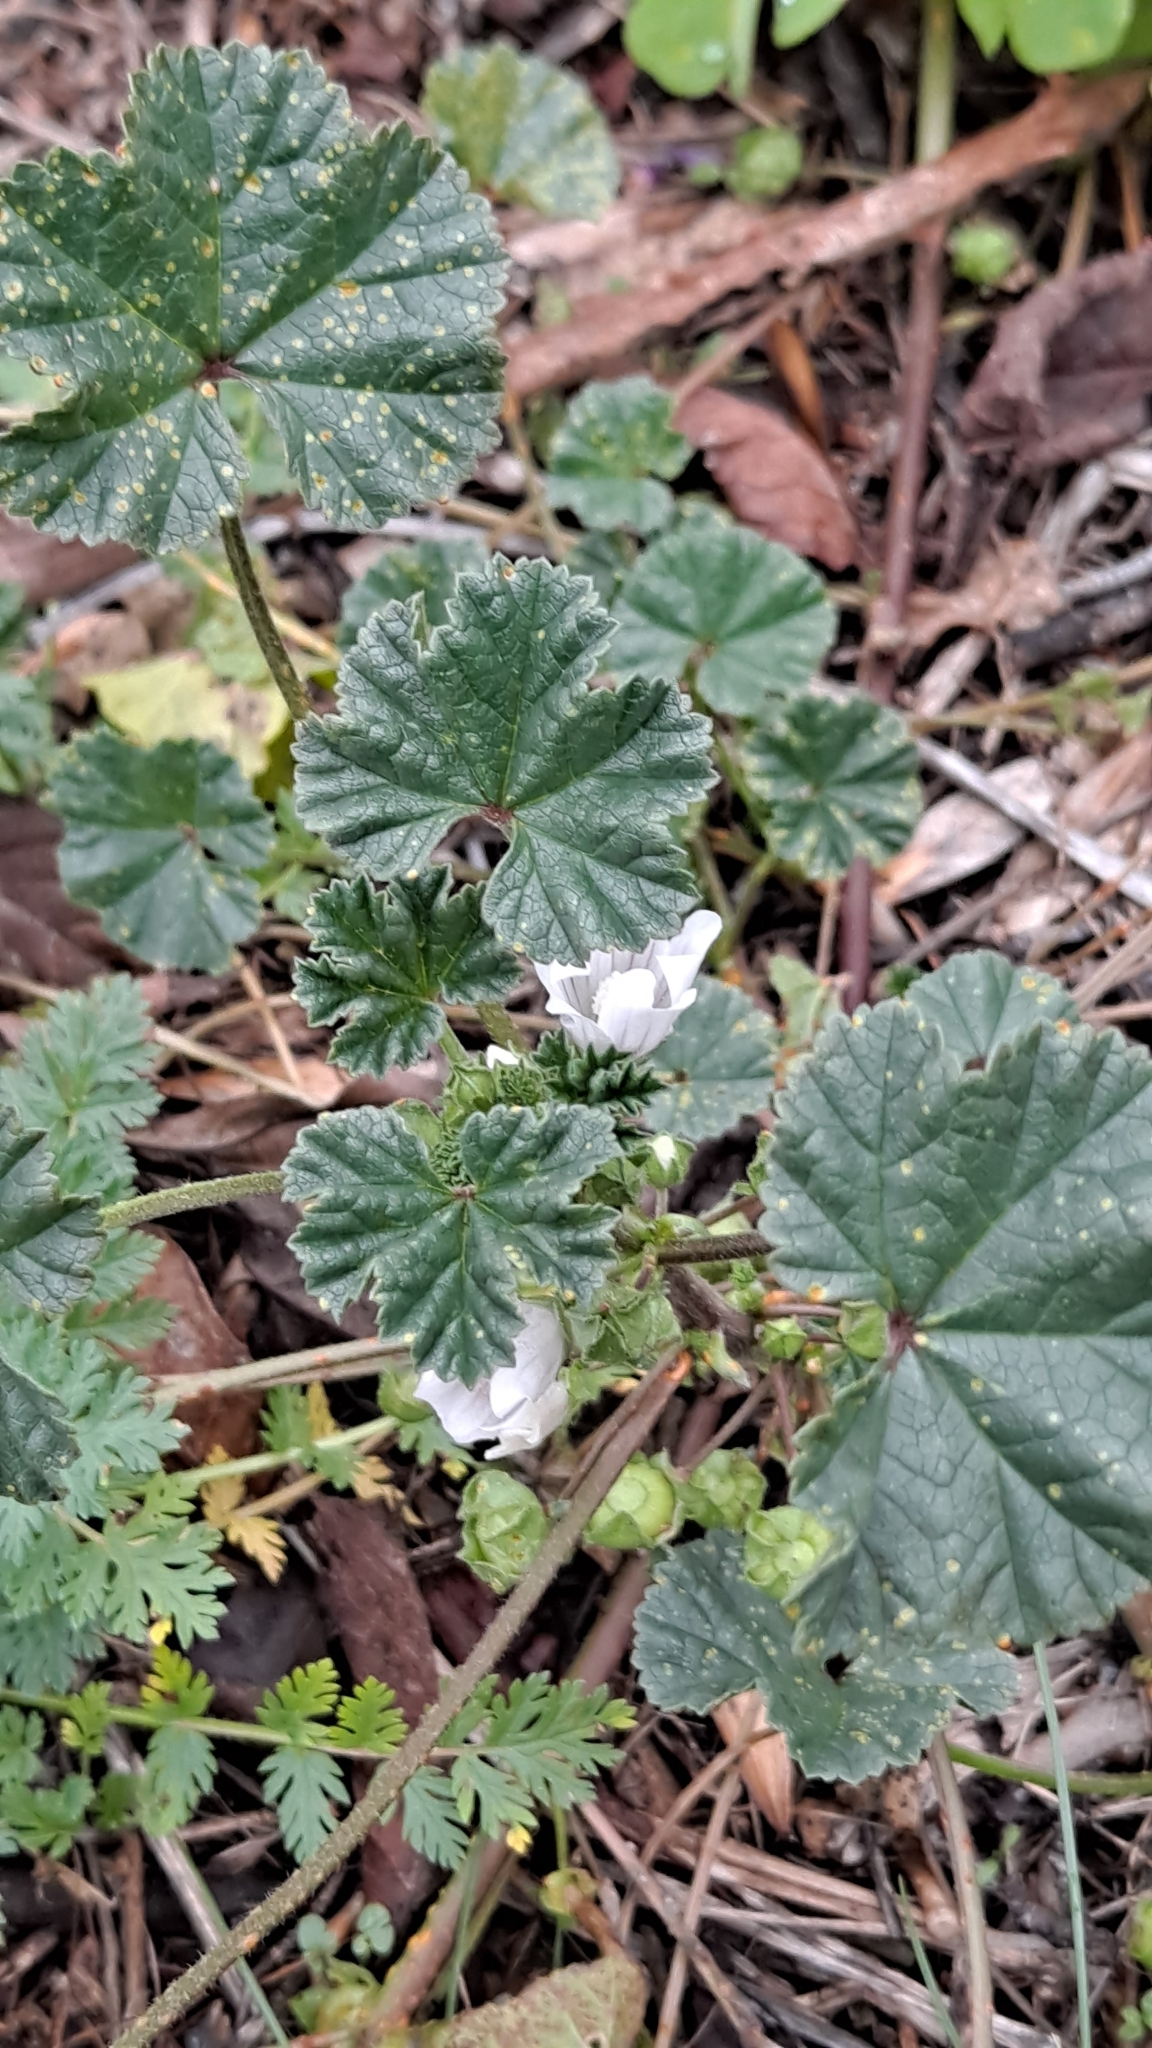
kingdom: Plantae
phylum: Tracheophyta
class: Magnoliopsida
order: Malvales
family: Malvaceae
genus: Malva
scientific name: Malva neglecta
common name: Common mallow
